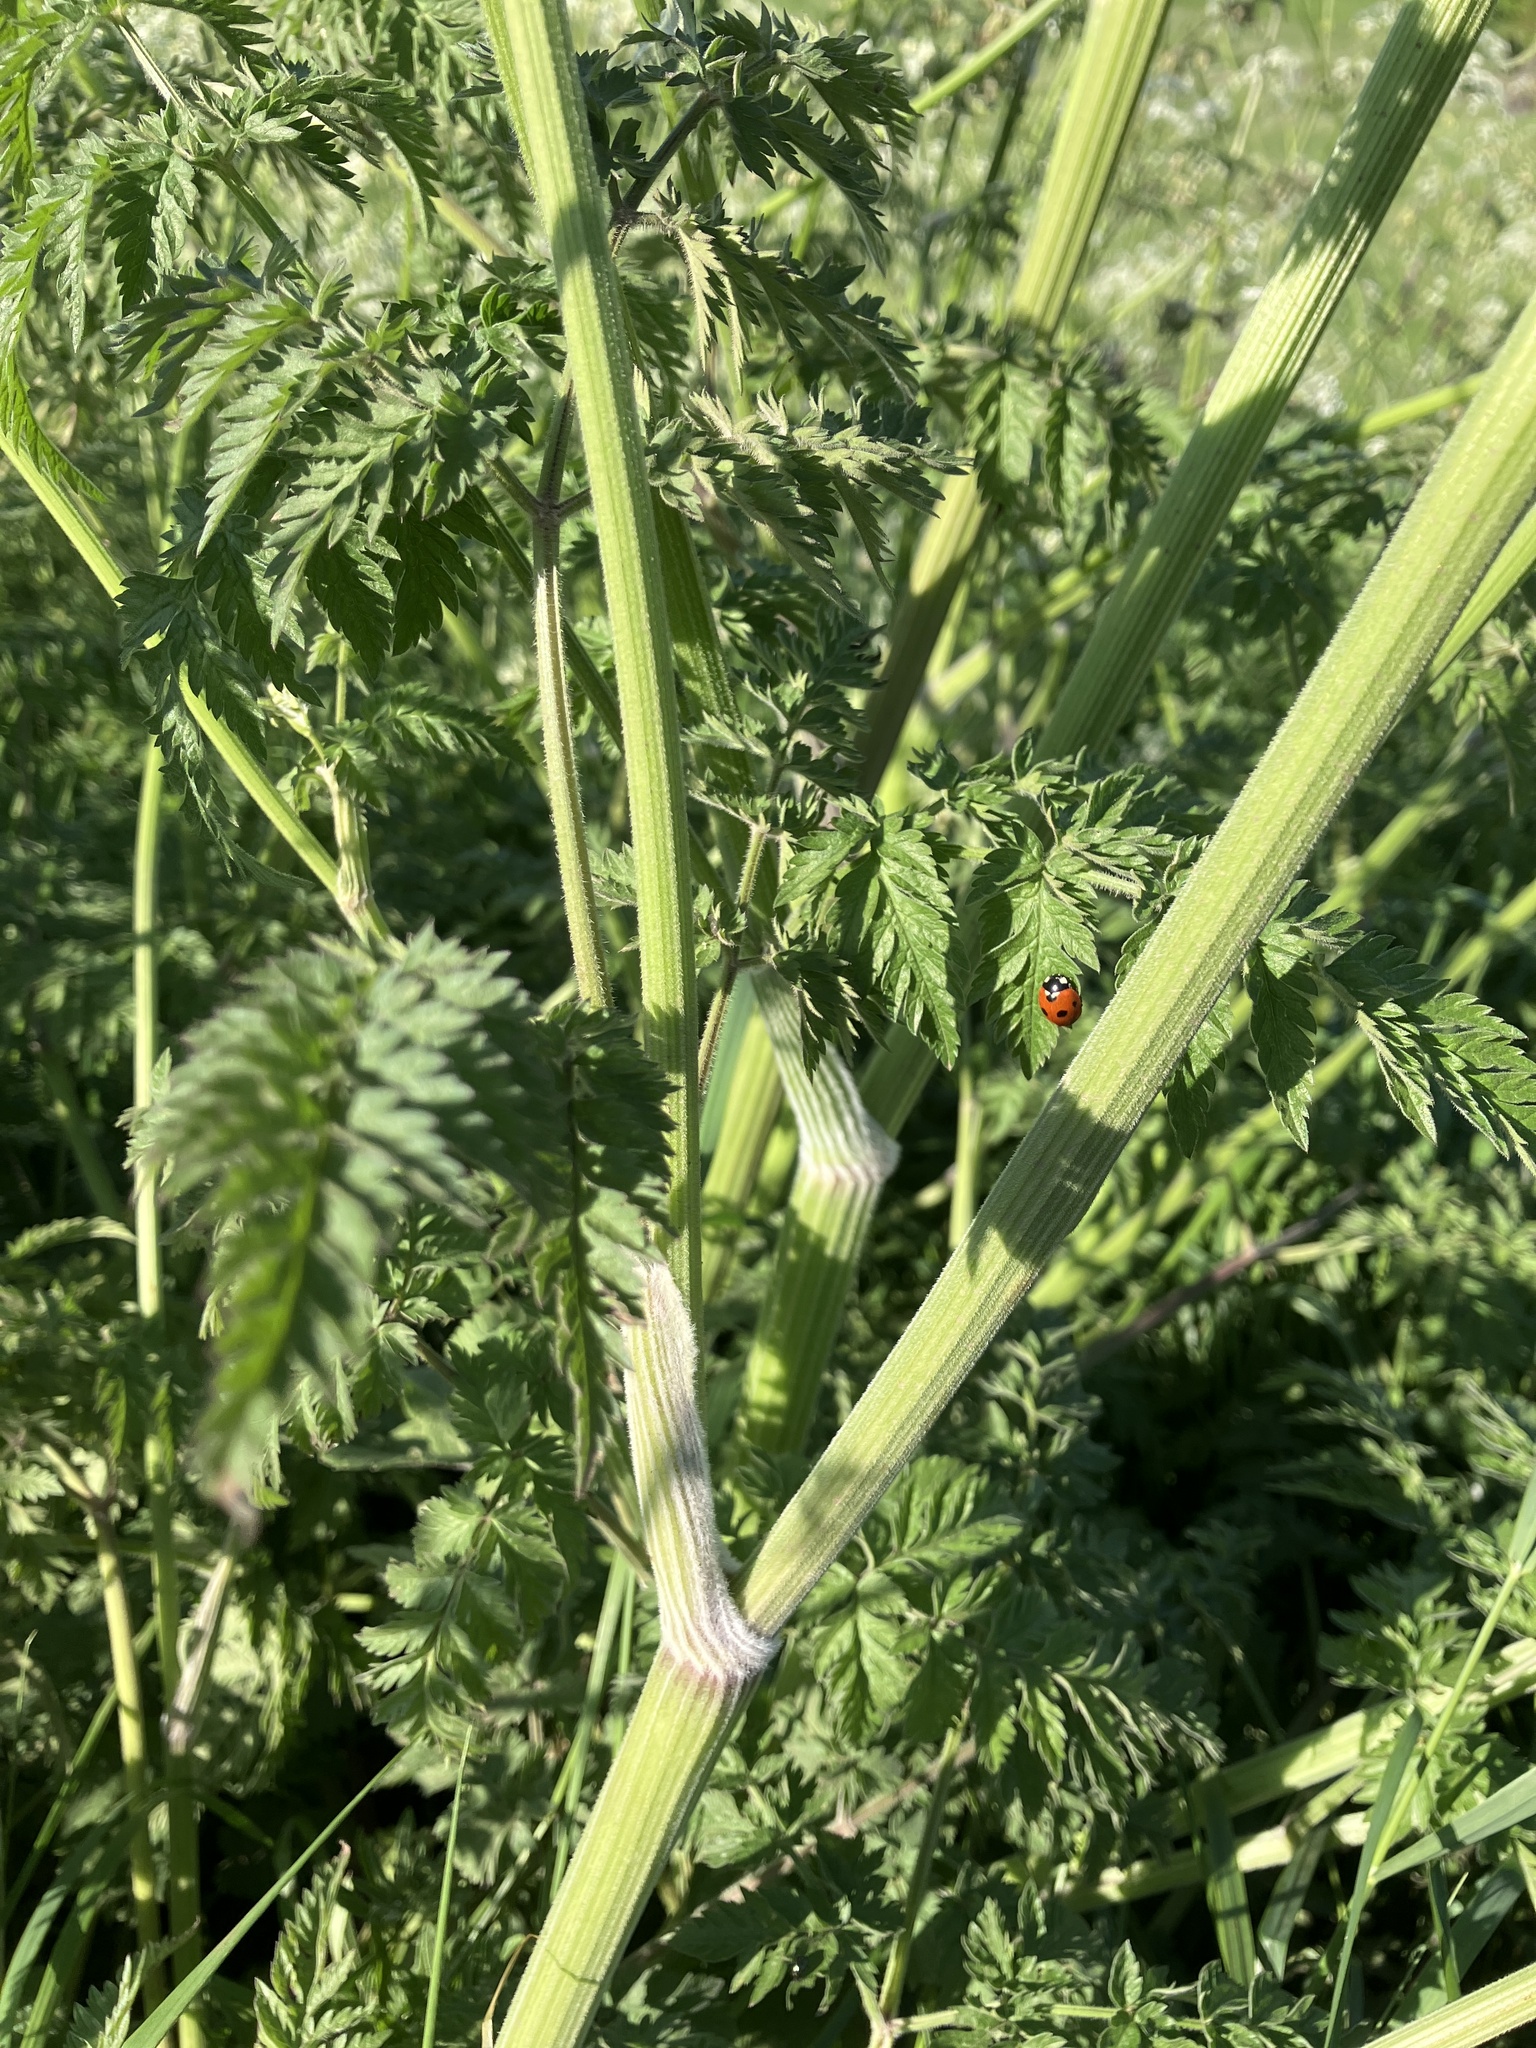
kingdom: Plantae
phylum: Tracheophyta
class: Magnoliopsida
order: Apiales
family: Apiaceae
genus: Anthriscus
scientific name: Anthriscus sylvestris
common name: Cow parsley
